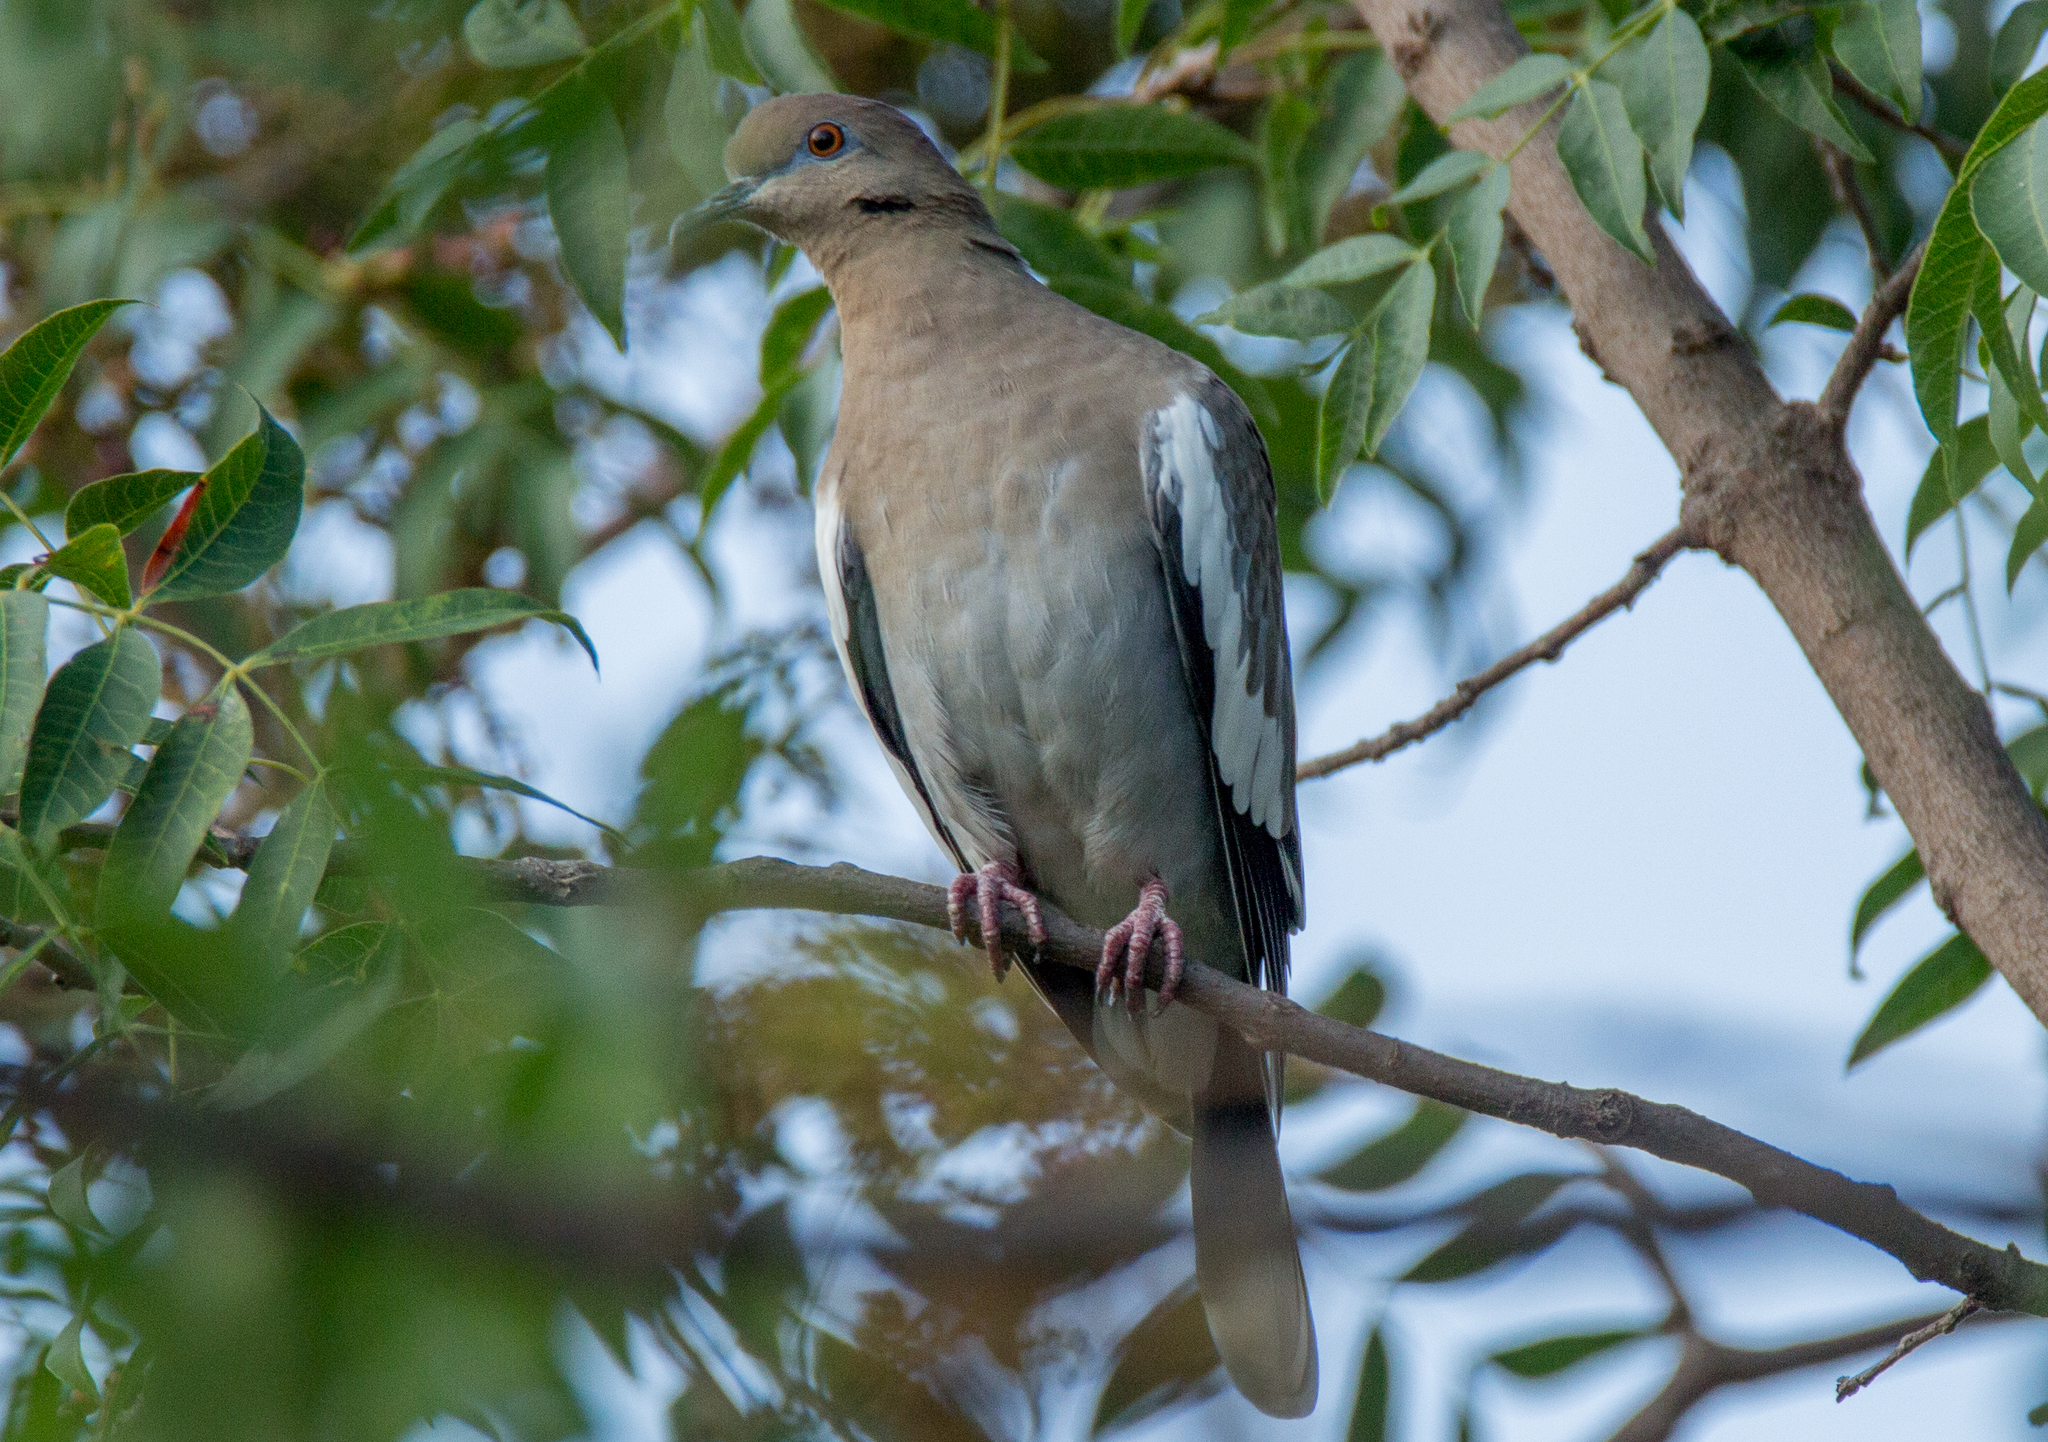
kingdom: Animalia
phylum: Chordata
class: Aves
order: Columbiformes
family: Columbidae
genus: Zenaida
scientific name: Zenaida asiatica
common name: White-winged dove
